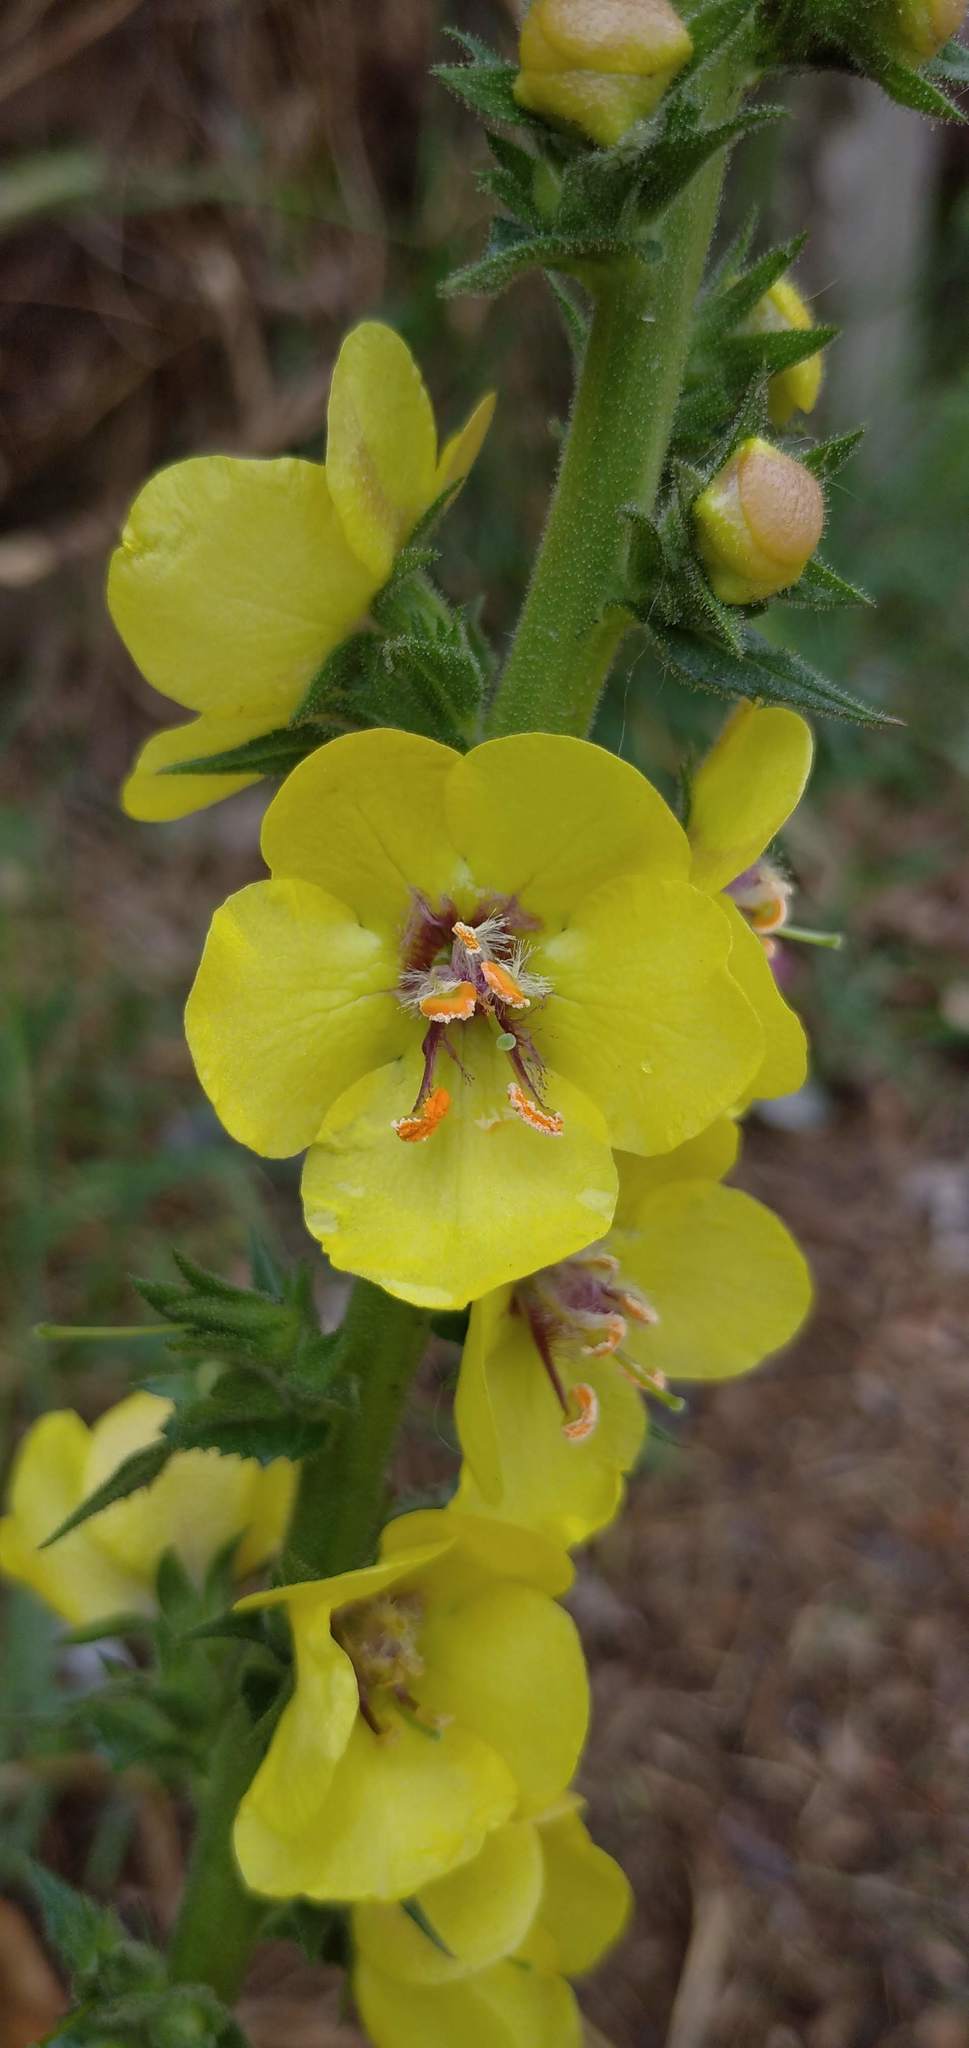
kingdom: Plantae
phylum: Tracheophyta
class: Magnoliopsida
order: Lamiales
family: Scrophulariaceae
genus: Verbascum
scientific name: Verbascum virgatum
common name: Twiggy mullein
